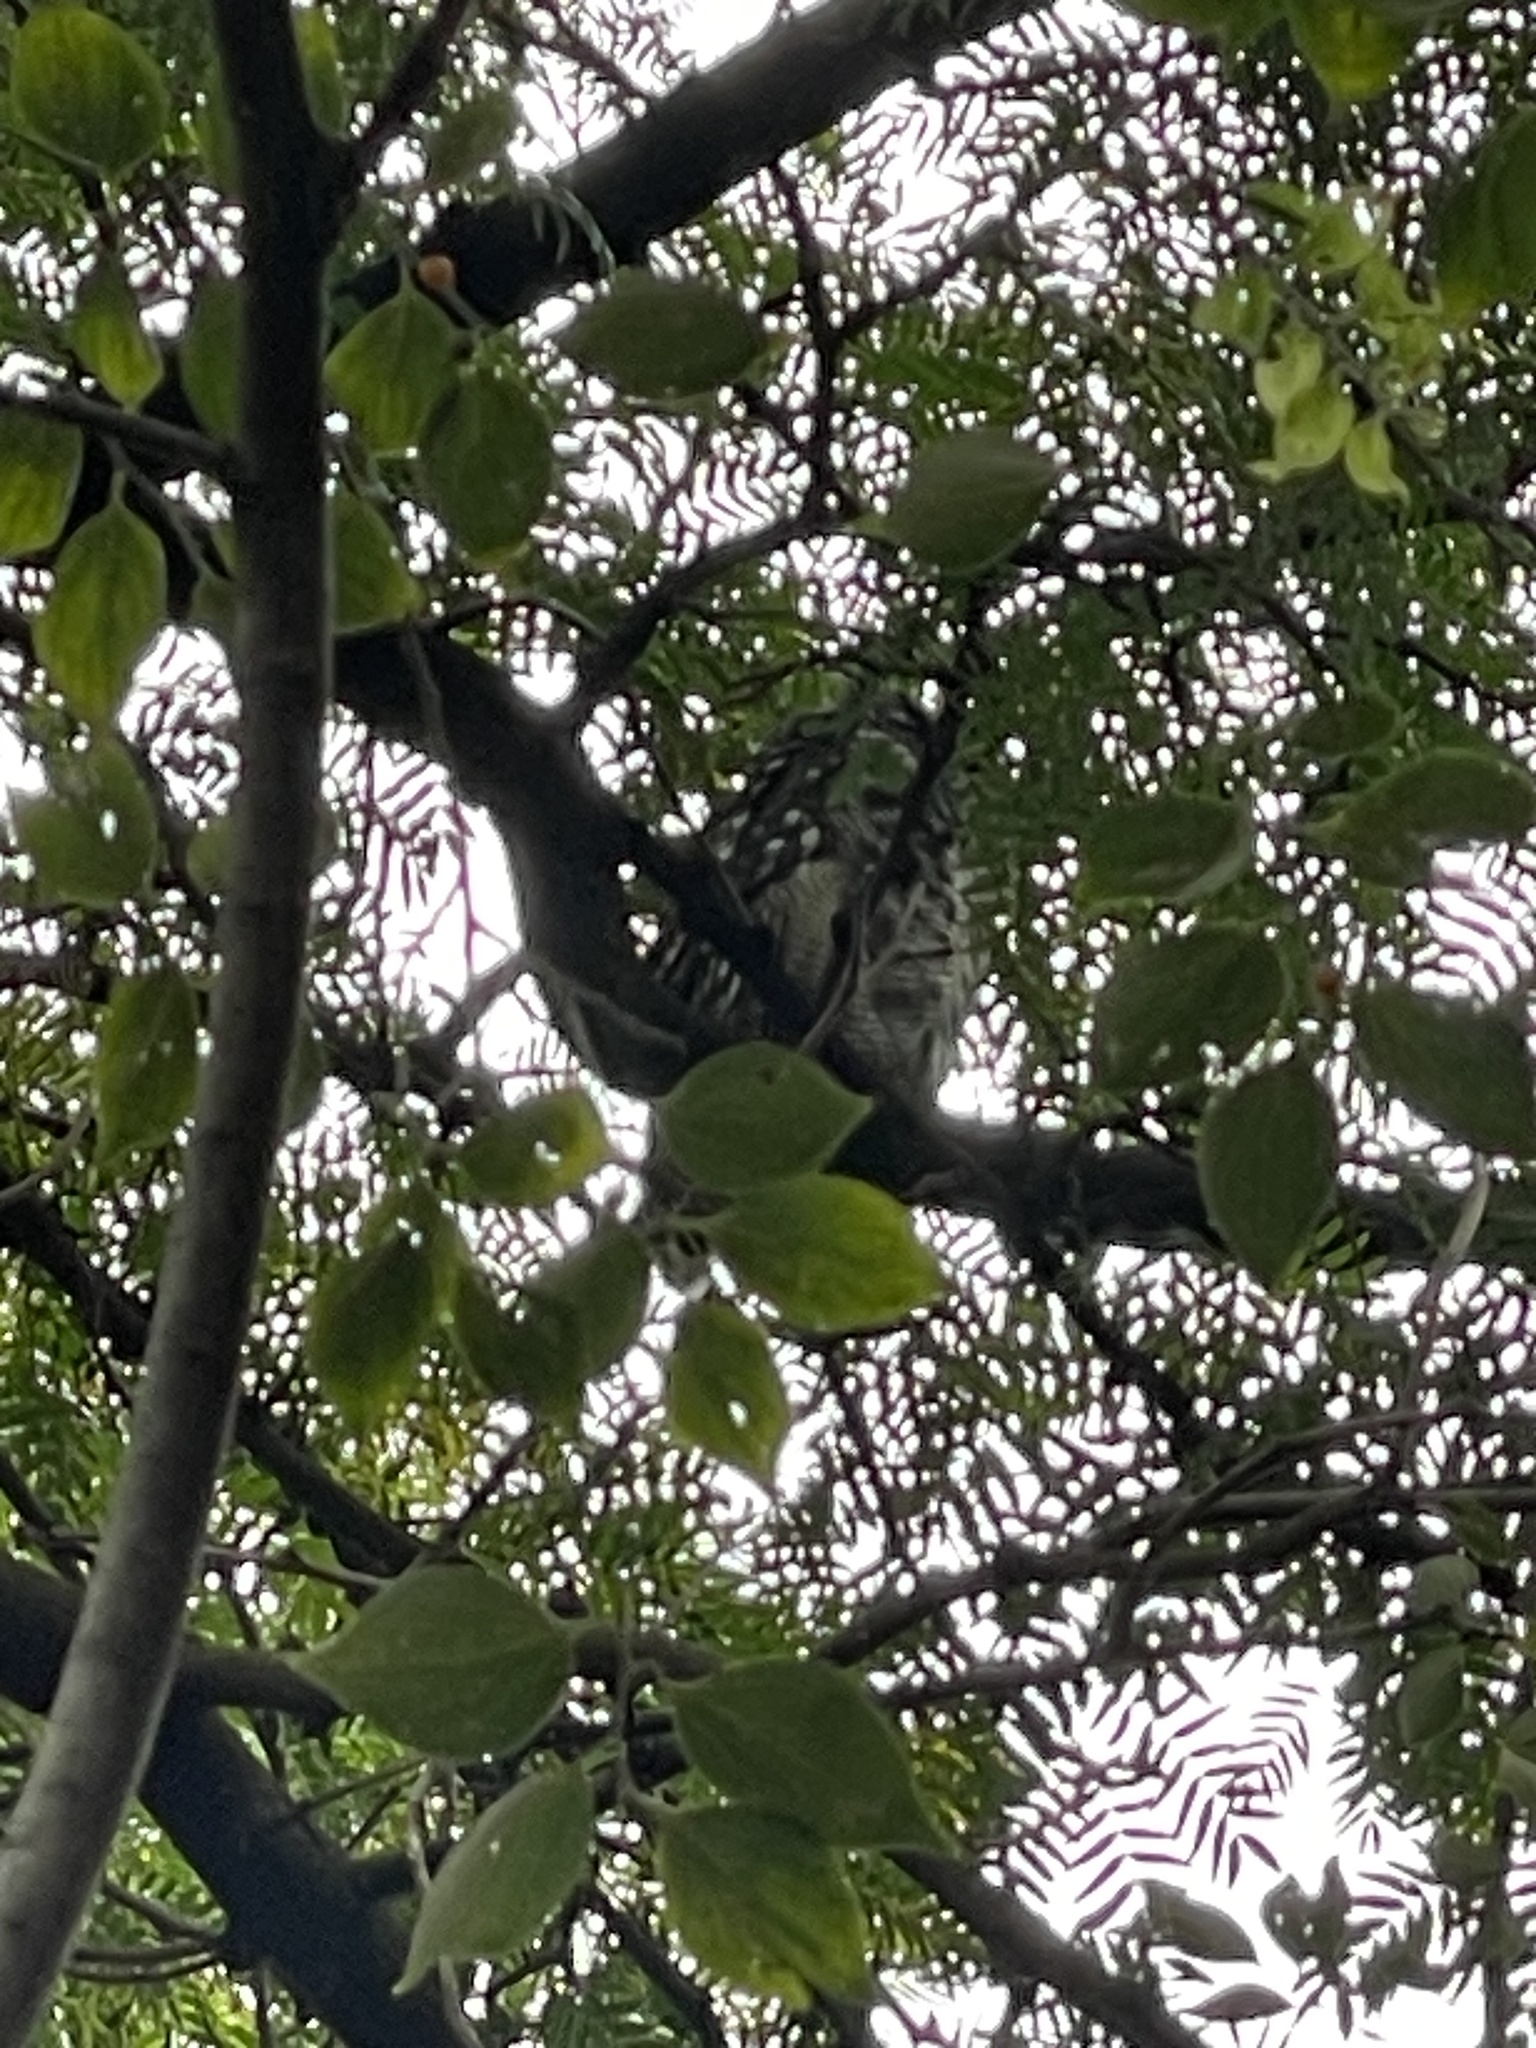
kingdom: Animalia
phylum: Chordata
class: Aves
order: Strigiformes
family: Strigidae
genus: Bubo
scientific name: Bubo africanus
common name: Spotted eagle-owl
